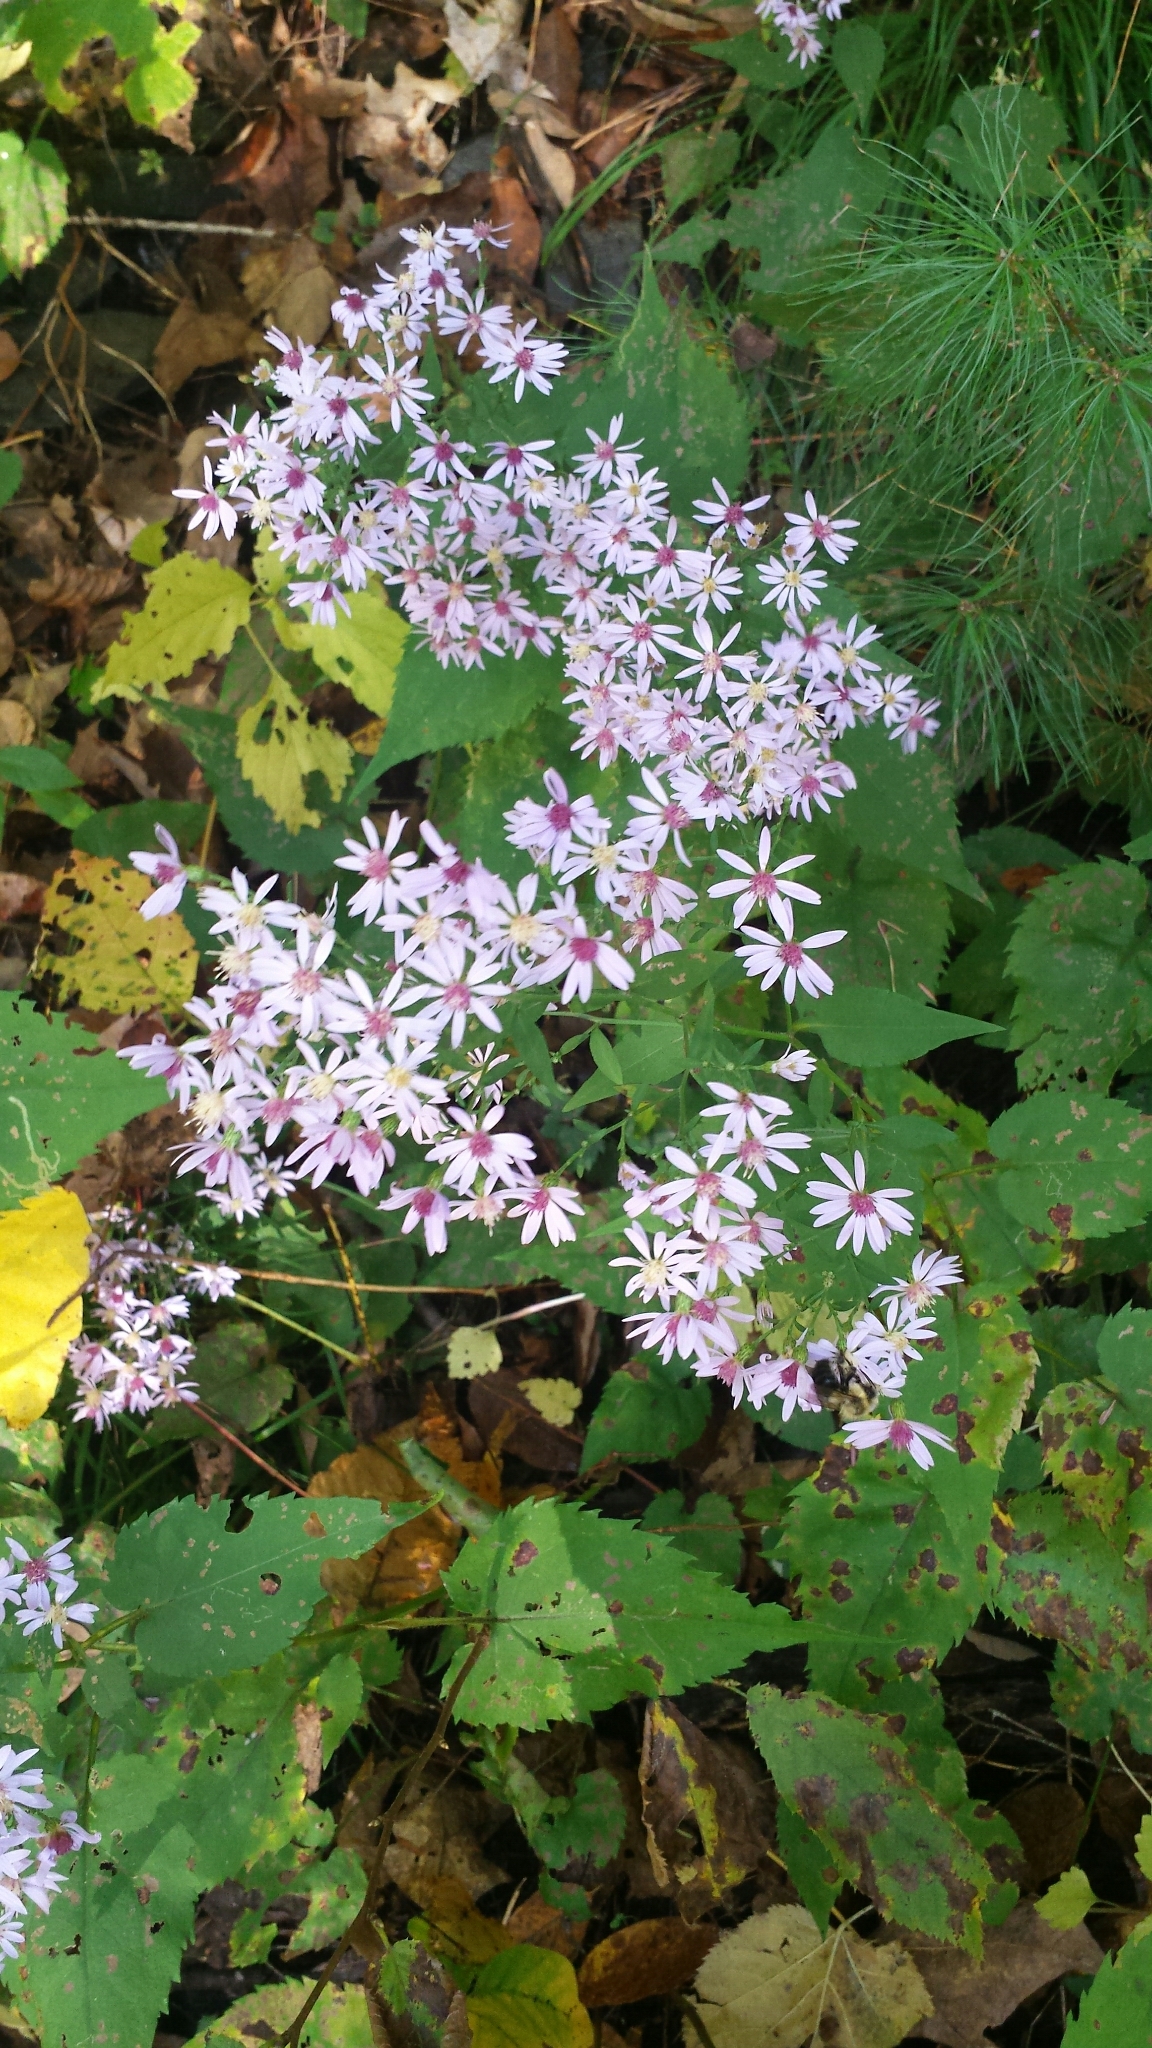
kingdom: Plantae
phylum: Tracheophyta
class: Magnoliopsida
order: Asterales
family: Asteraceae
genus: Symphyotrichum
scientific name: Symphyotrichum cordifolium
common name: Beeweed
